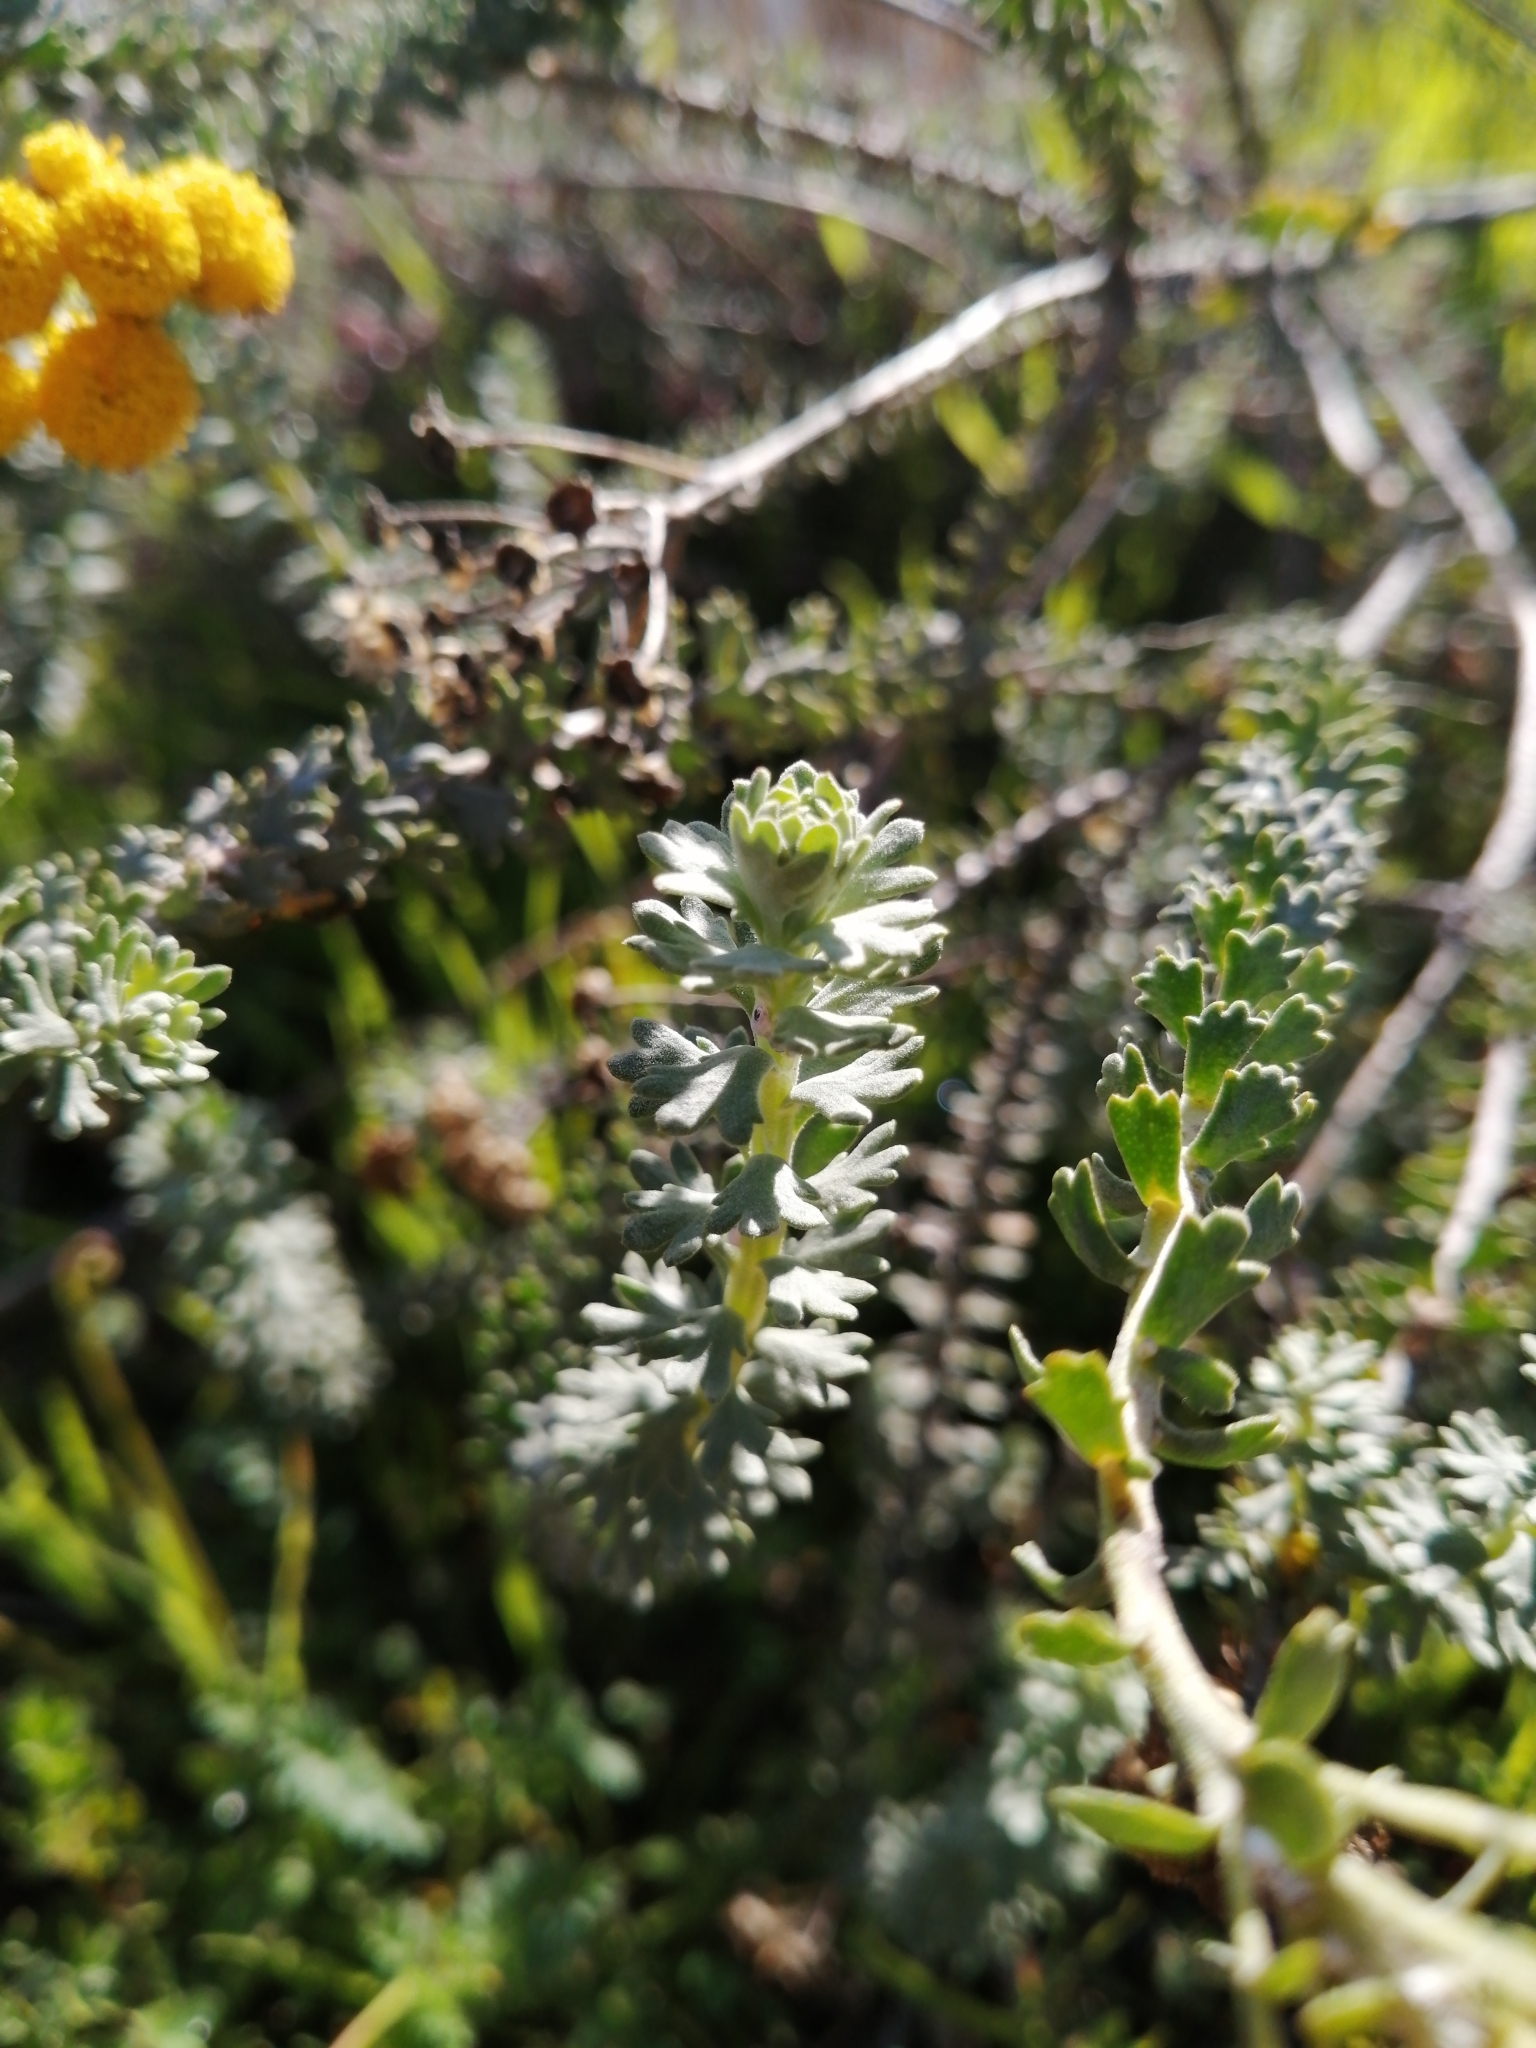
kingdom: Plantae
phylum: Tracheophyta
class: Magnoliopsida
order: Asterales
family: Asteraceae
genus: Athanasia
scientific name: Athanasia trifurcata
